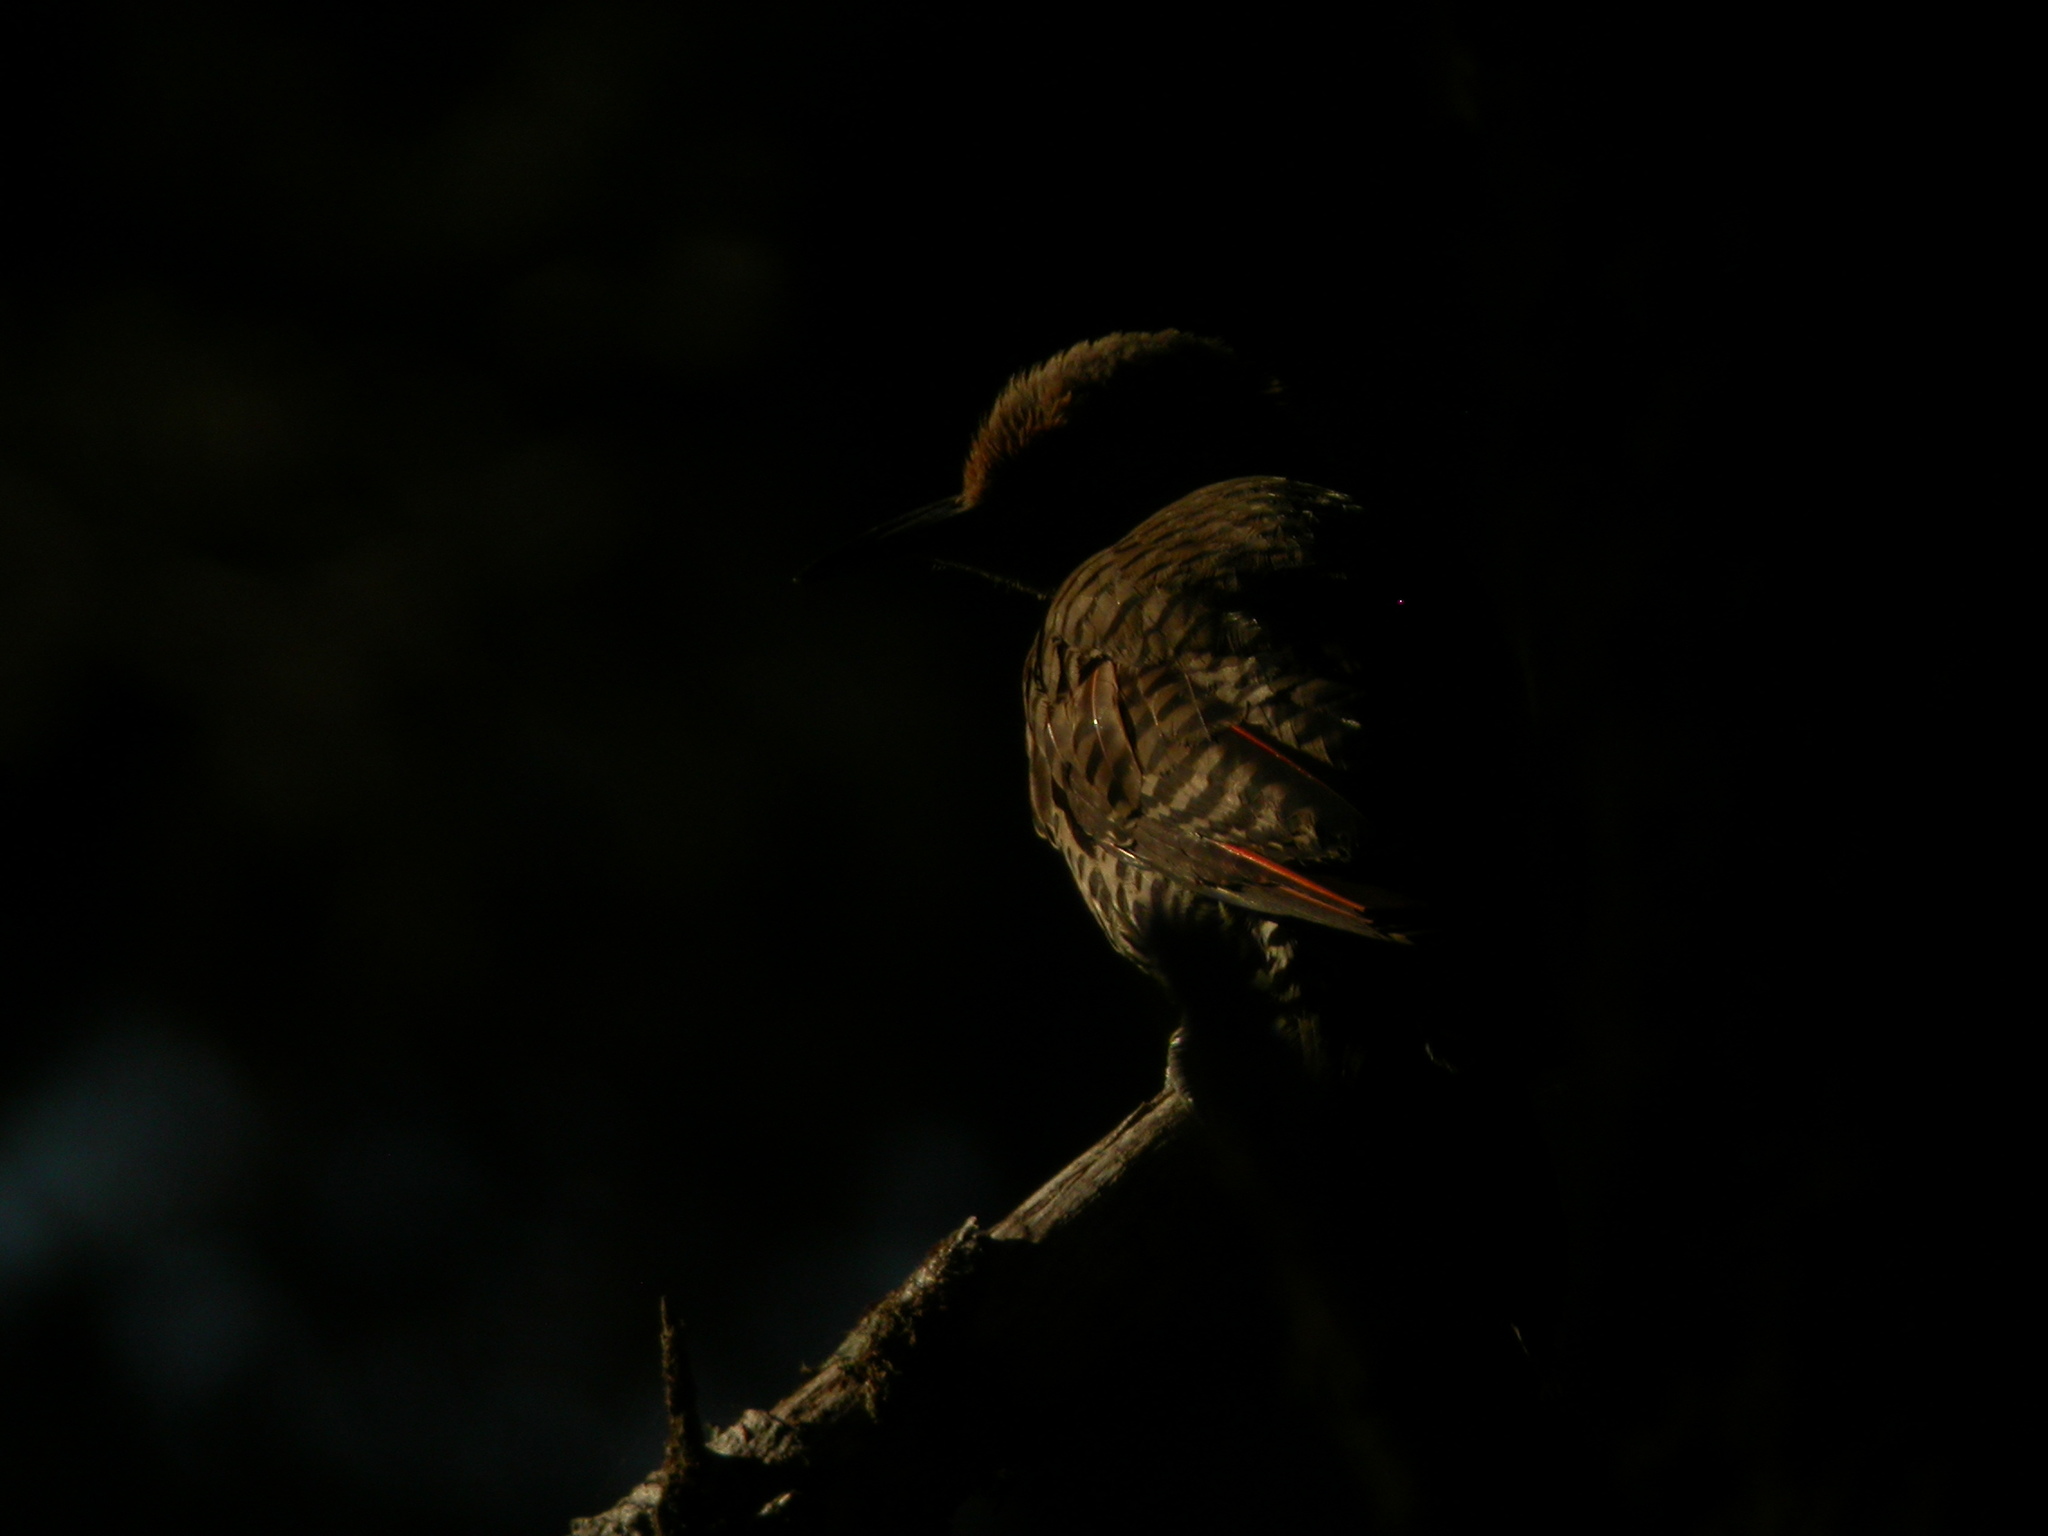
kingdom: Animalia
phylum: Chordata
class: Aves
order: Piciformes
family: Picidae
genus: Colaptes
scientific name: Colaptes auratus
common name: Northern flicker
